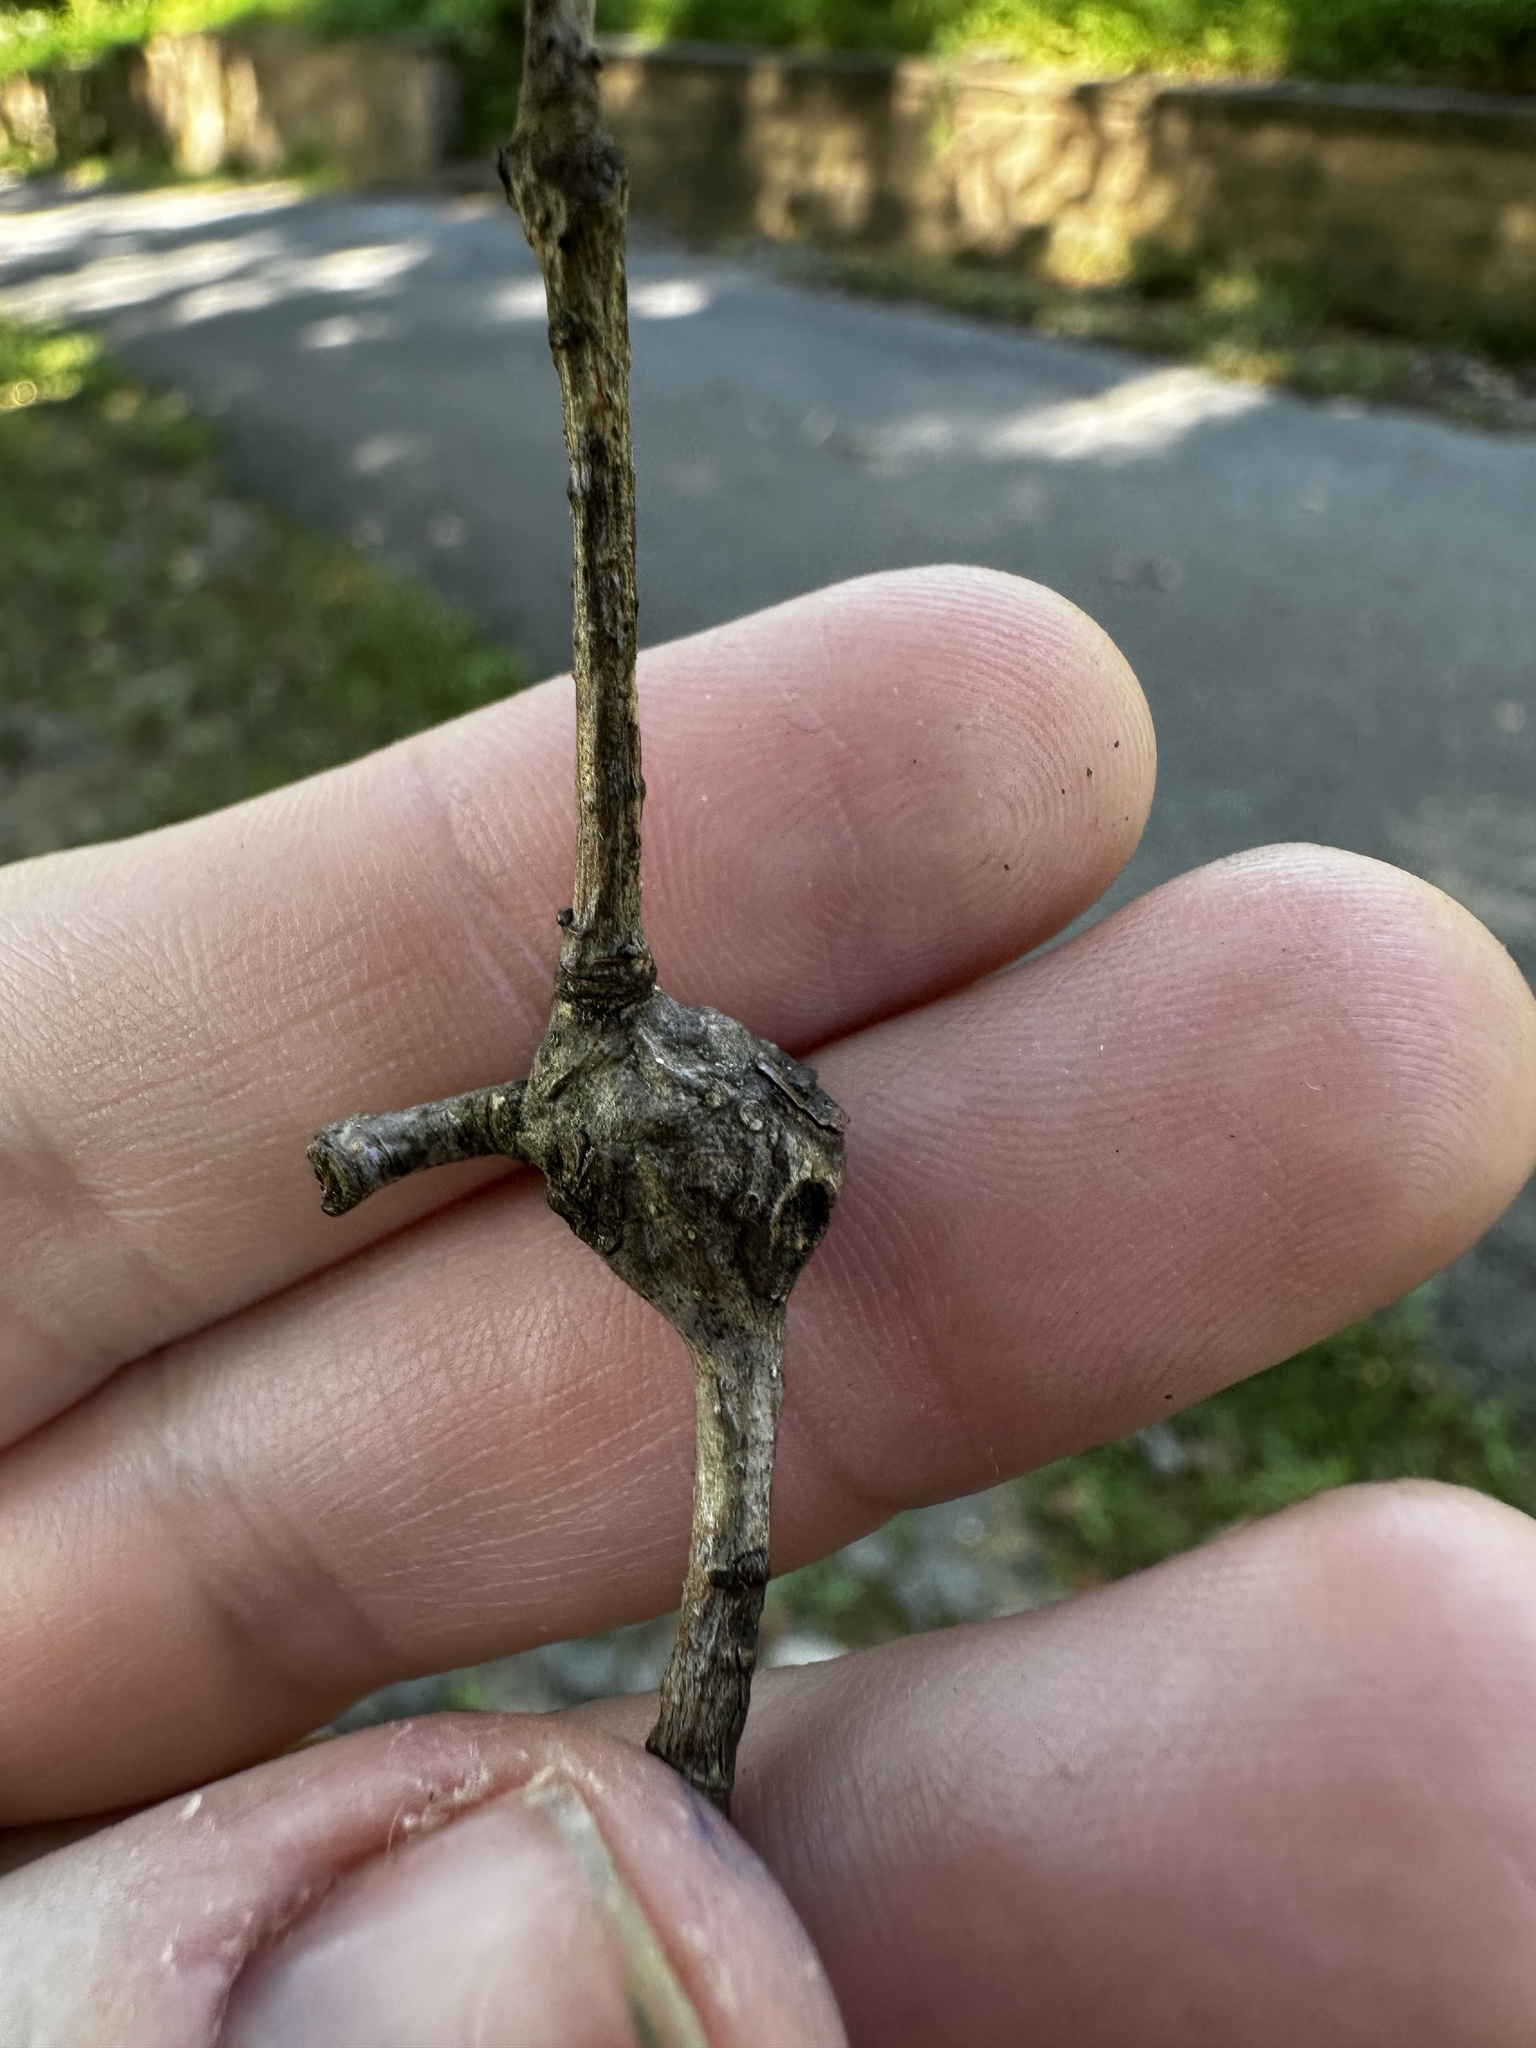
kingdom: Animalia
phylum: Arthropoda
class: Insecta
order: Hymenoptera
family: Cynipidae
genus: Callirhytis
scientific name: Callirhytis clavula
